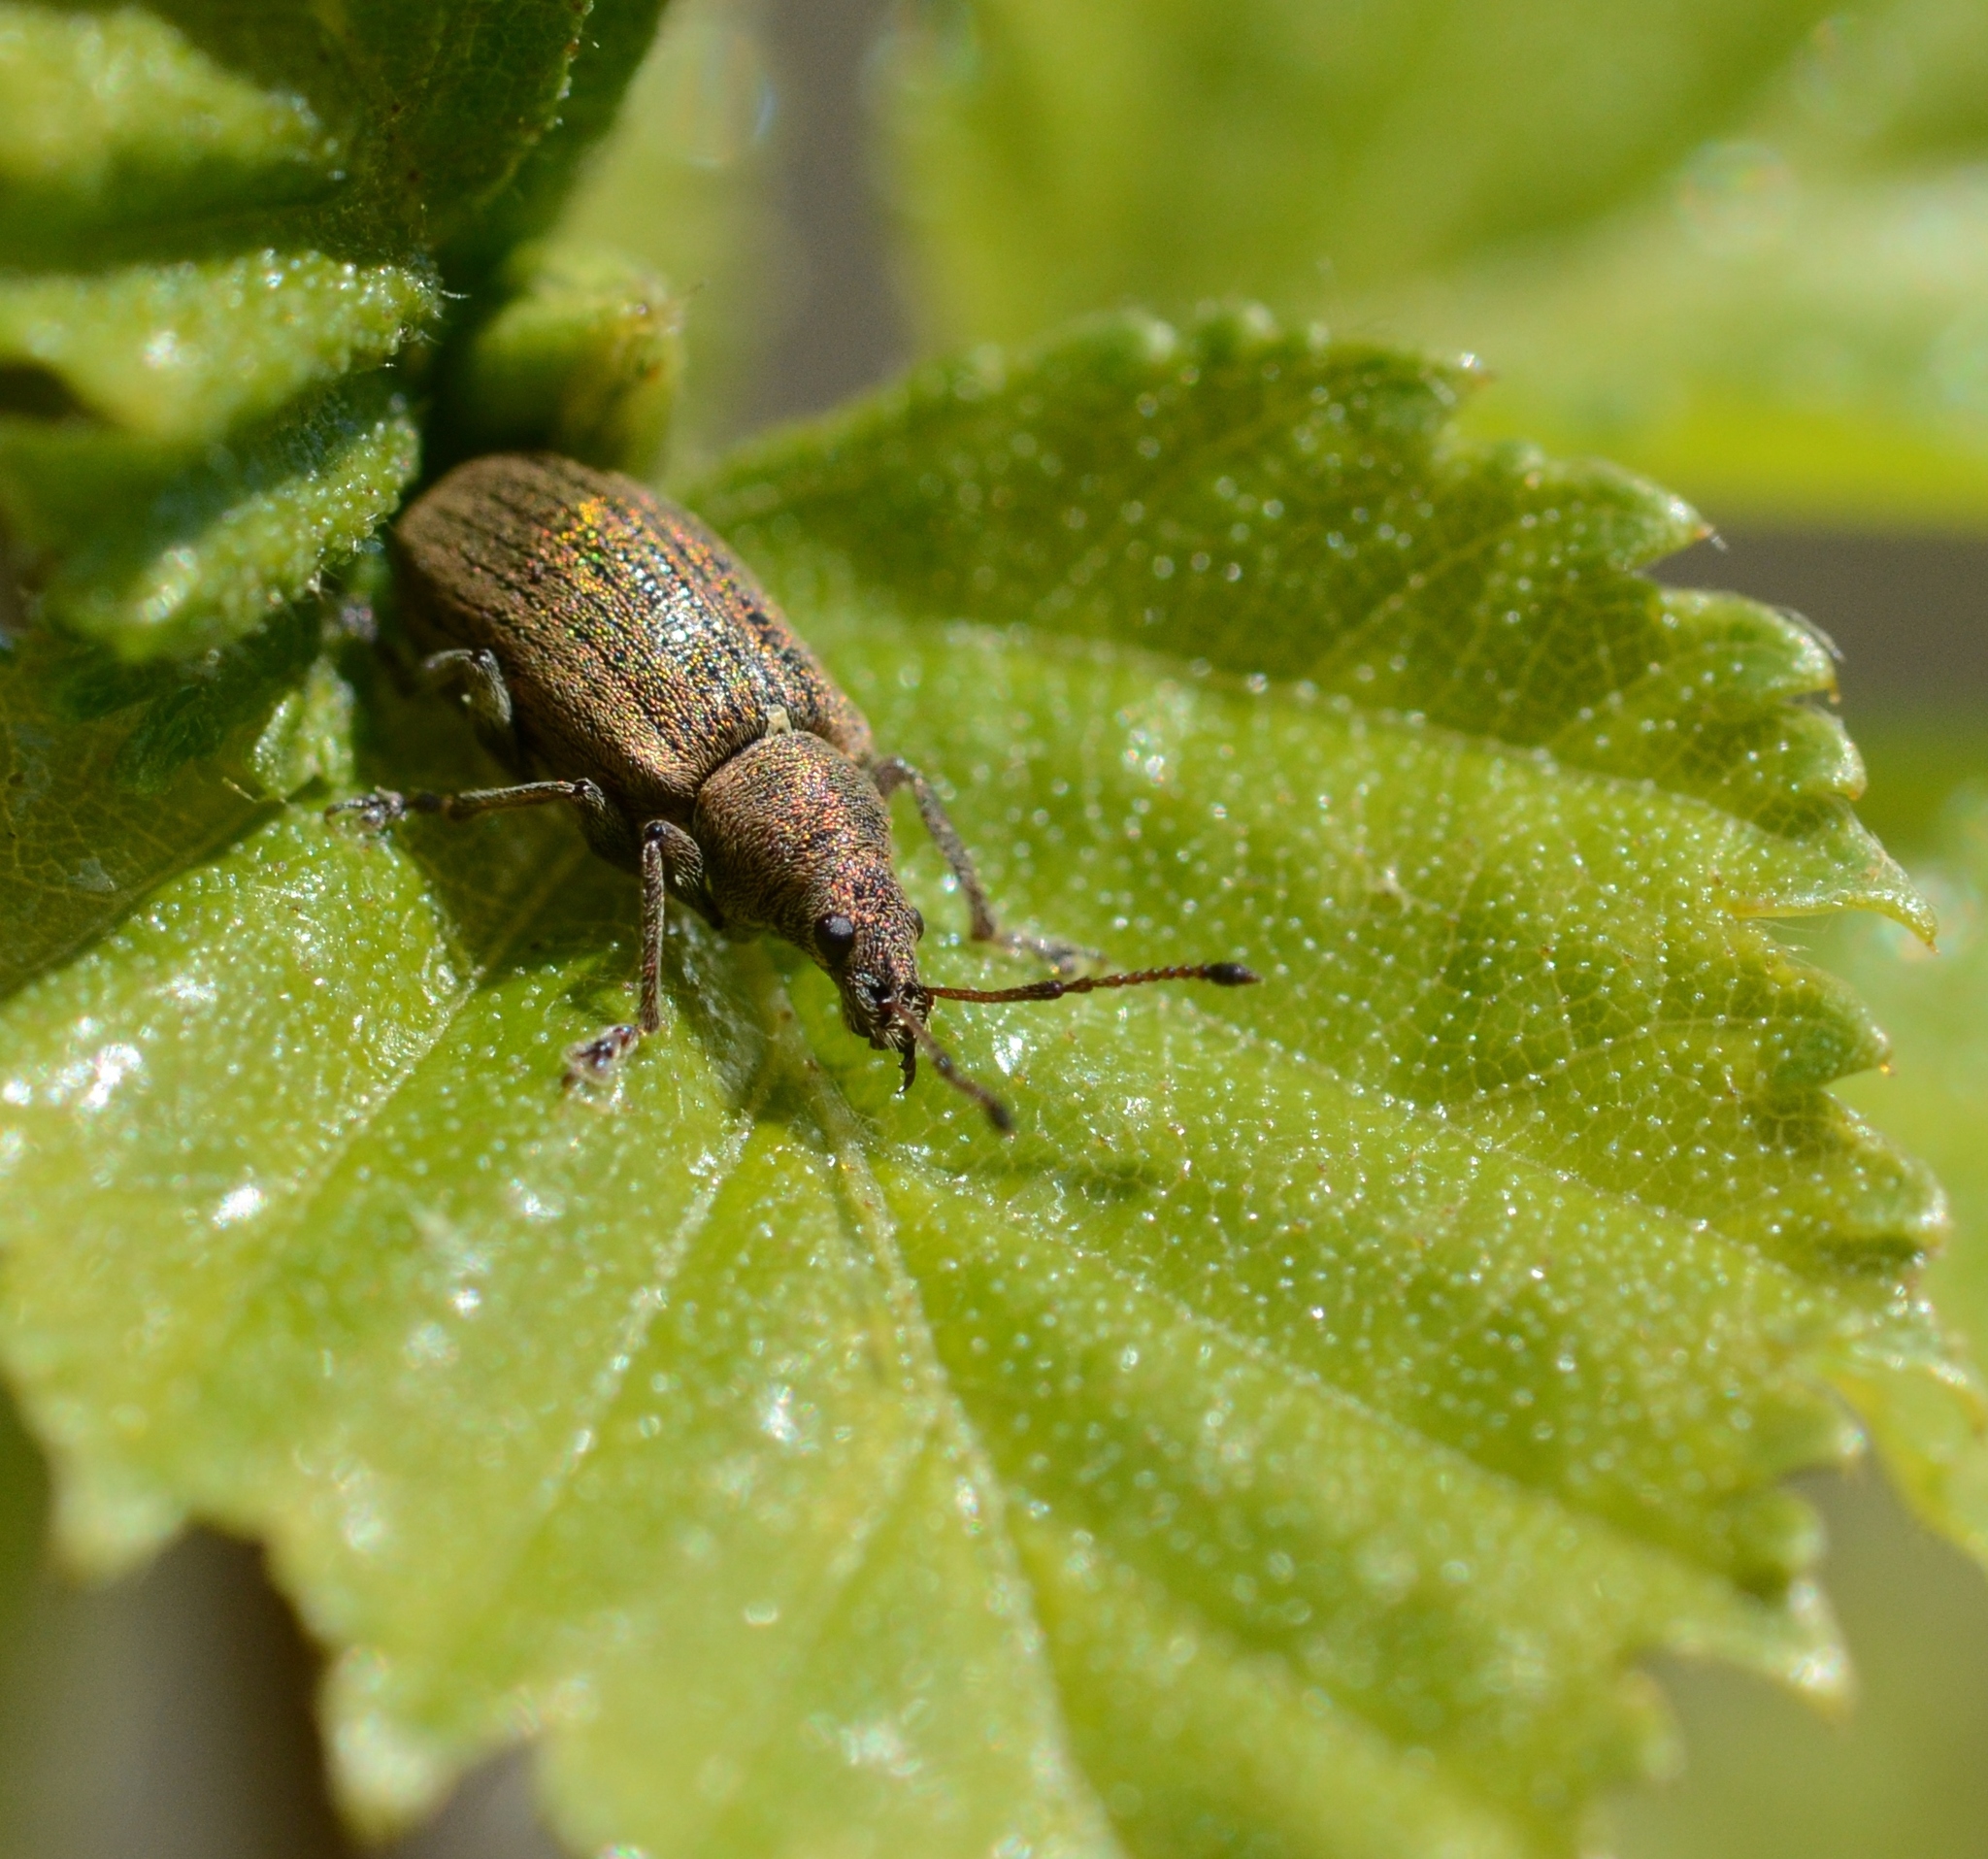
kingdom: Animalia
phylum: Arthropoda
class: Insecta
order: Coleoptera
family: Curculionidae
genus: Phyllobius
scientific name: Phyllobius pyri
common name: Common leaf weevil
